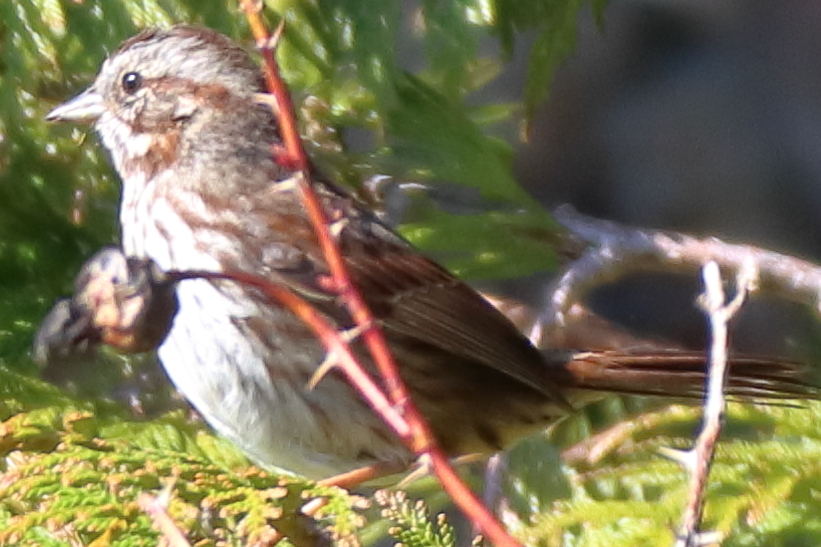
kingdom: Animalia
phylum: Chordata
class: Aves
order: Passeriformes
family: Passerellidae
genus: Melospiza
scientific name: Melospiza melodia
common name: Song sparrow
